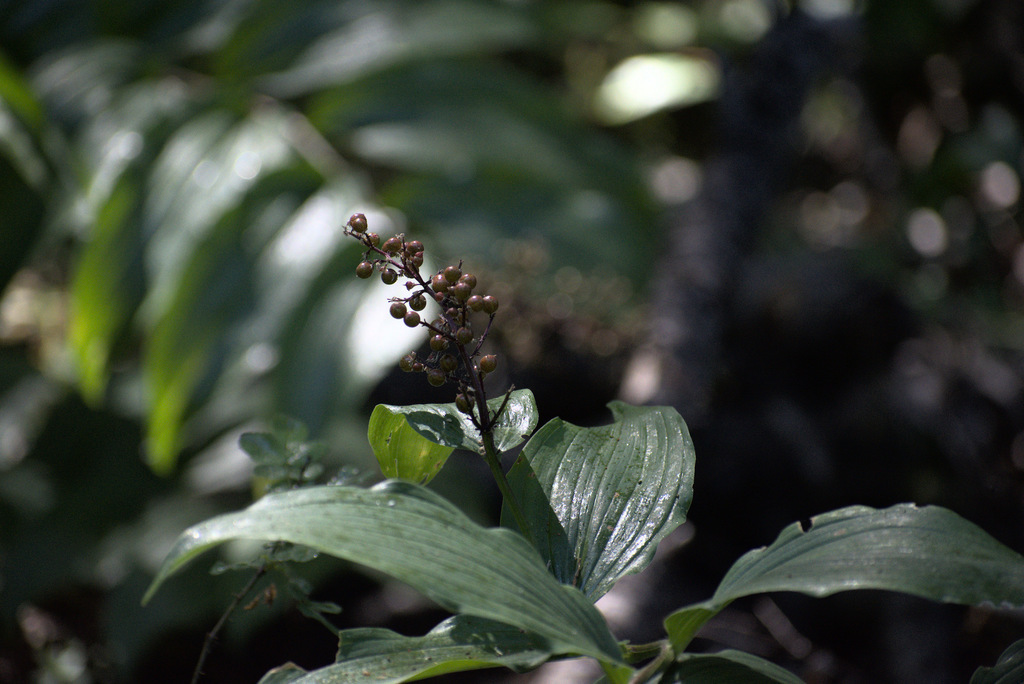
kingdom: Plantae
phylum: Tracheophyta
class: Liliopsida
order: Asparagales
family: Asparagaceae
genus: Maianthemum
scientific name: Maianthemum racemosum
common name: False spikenard
